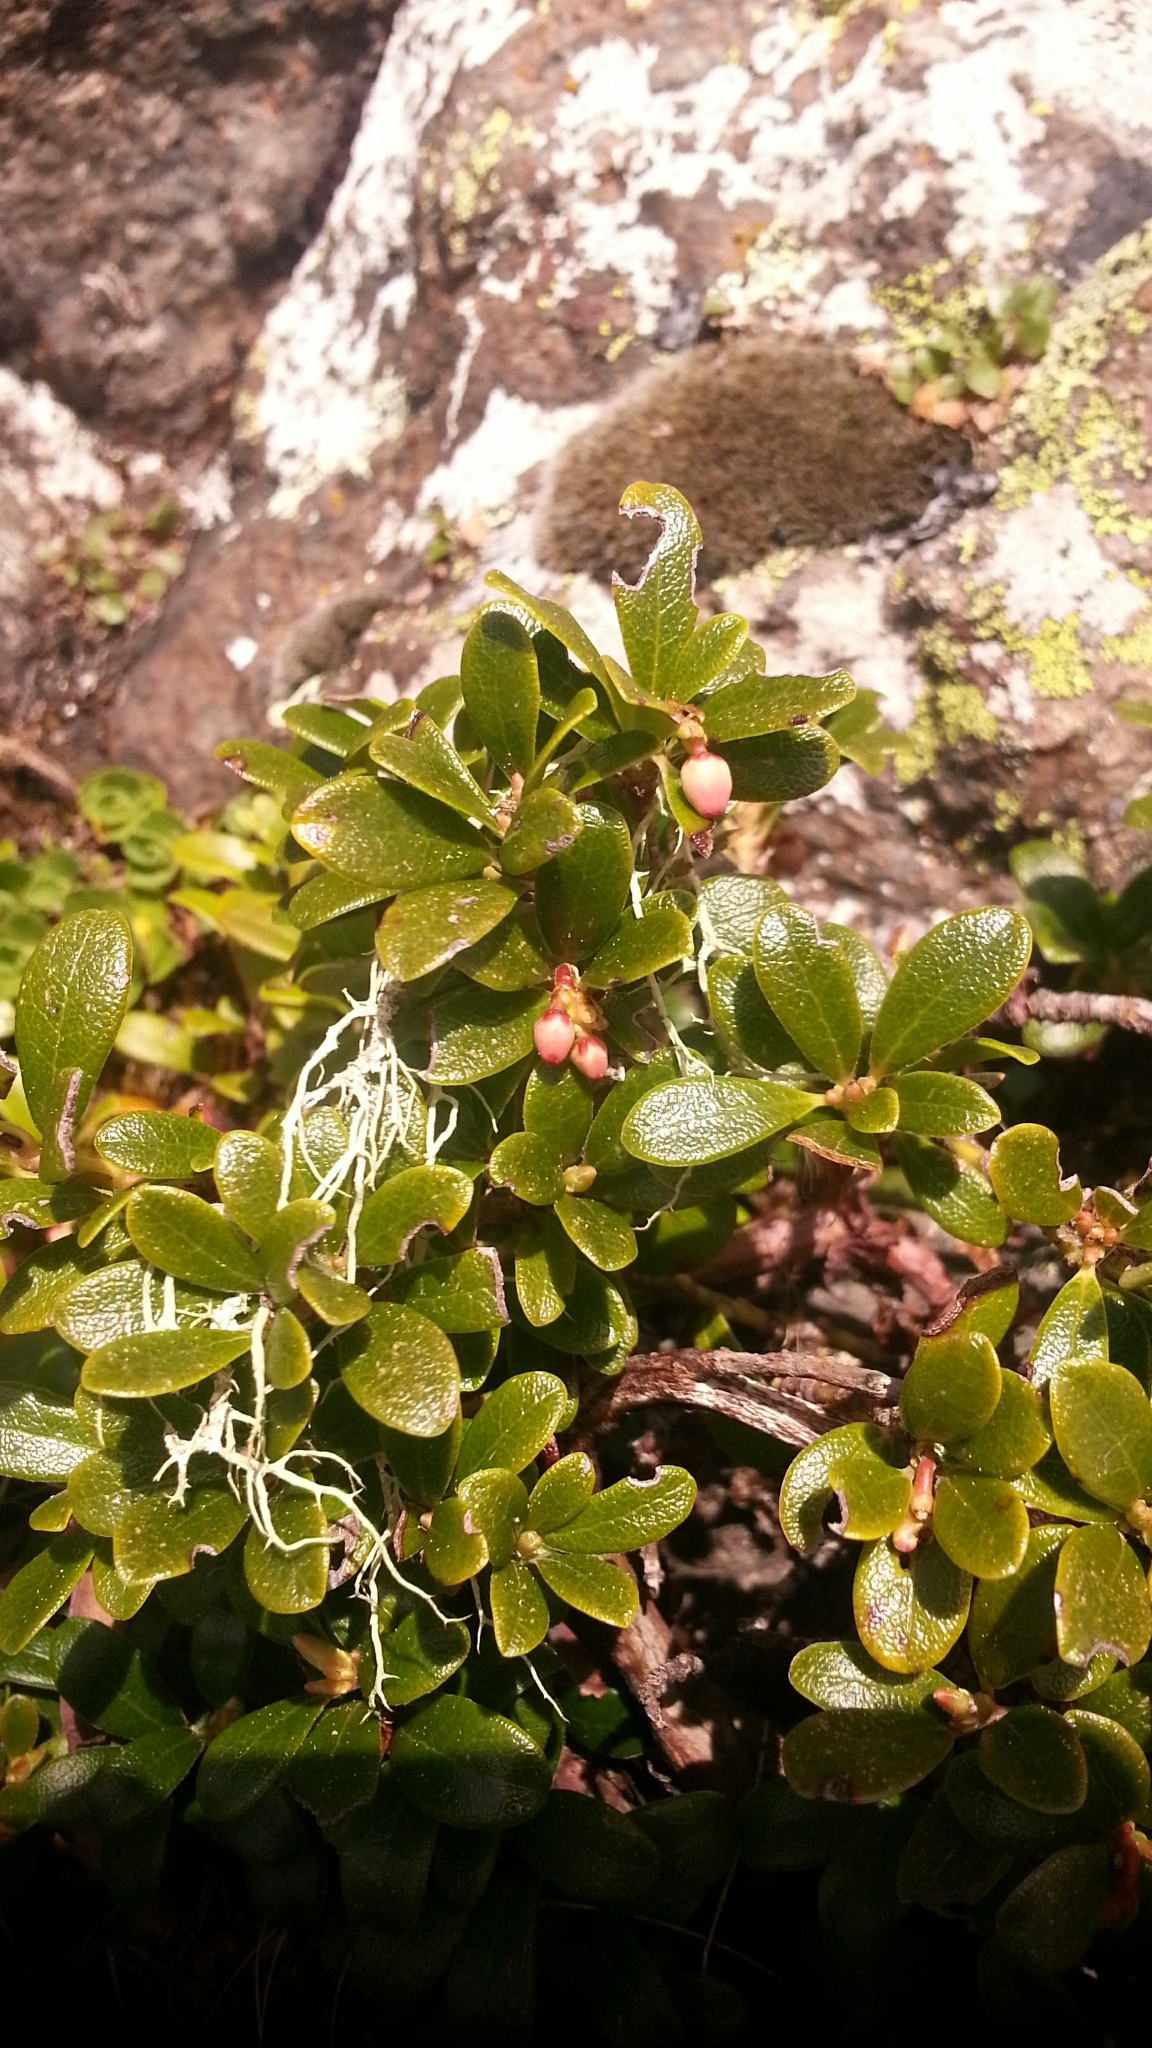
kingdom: Plantae
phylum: Tracheophyta
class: Magnoliopsida
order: Ericales
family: Ericaceae
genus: Arctostaphylos
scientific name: Arctostaphylos uva-ursi
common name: Bearberry
